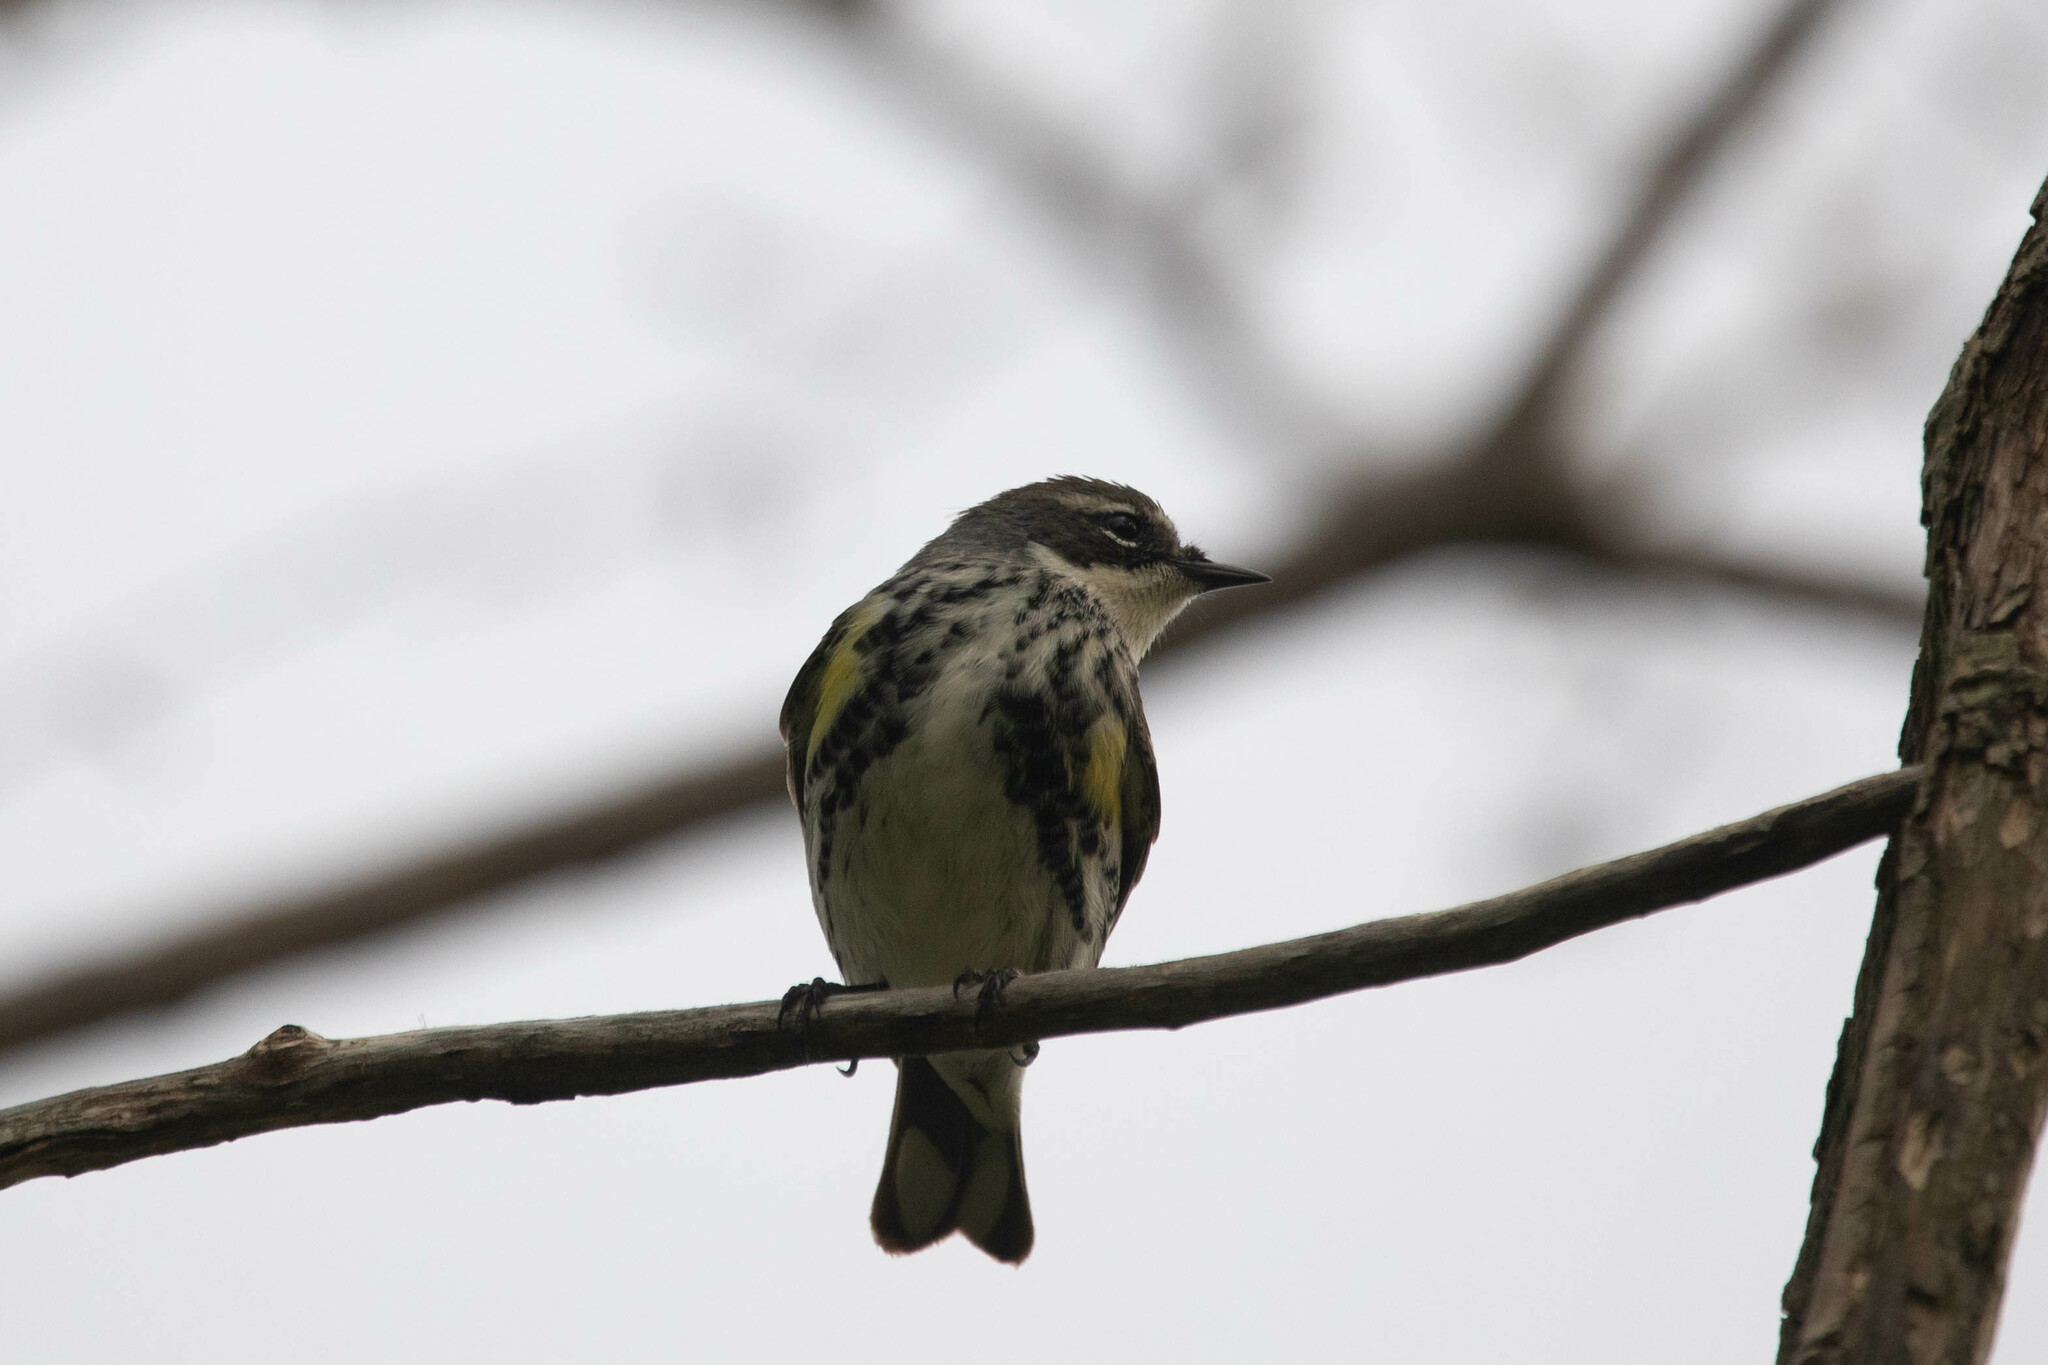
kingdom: Animalia
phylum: Chordata
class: Aves
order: Passeriformes
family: Parulidae
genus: Setophaga
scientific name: Setophaga coronata
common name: Myrtle warbler
